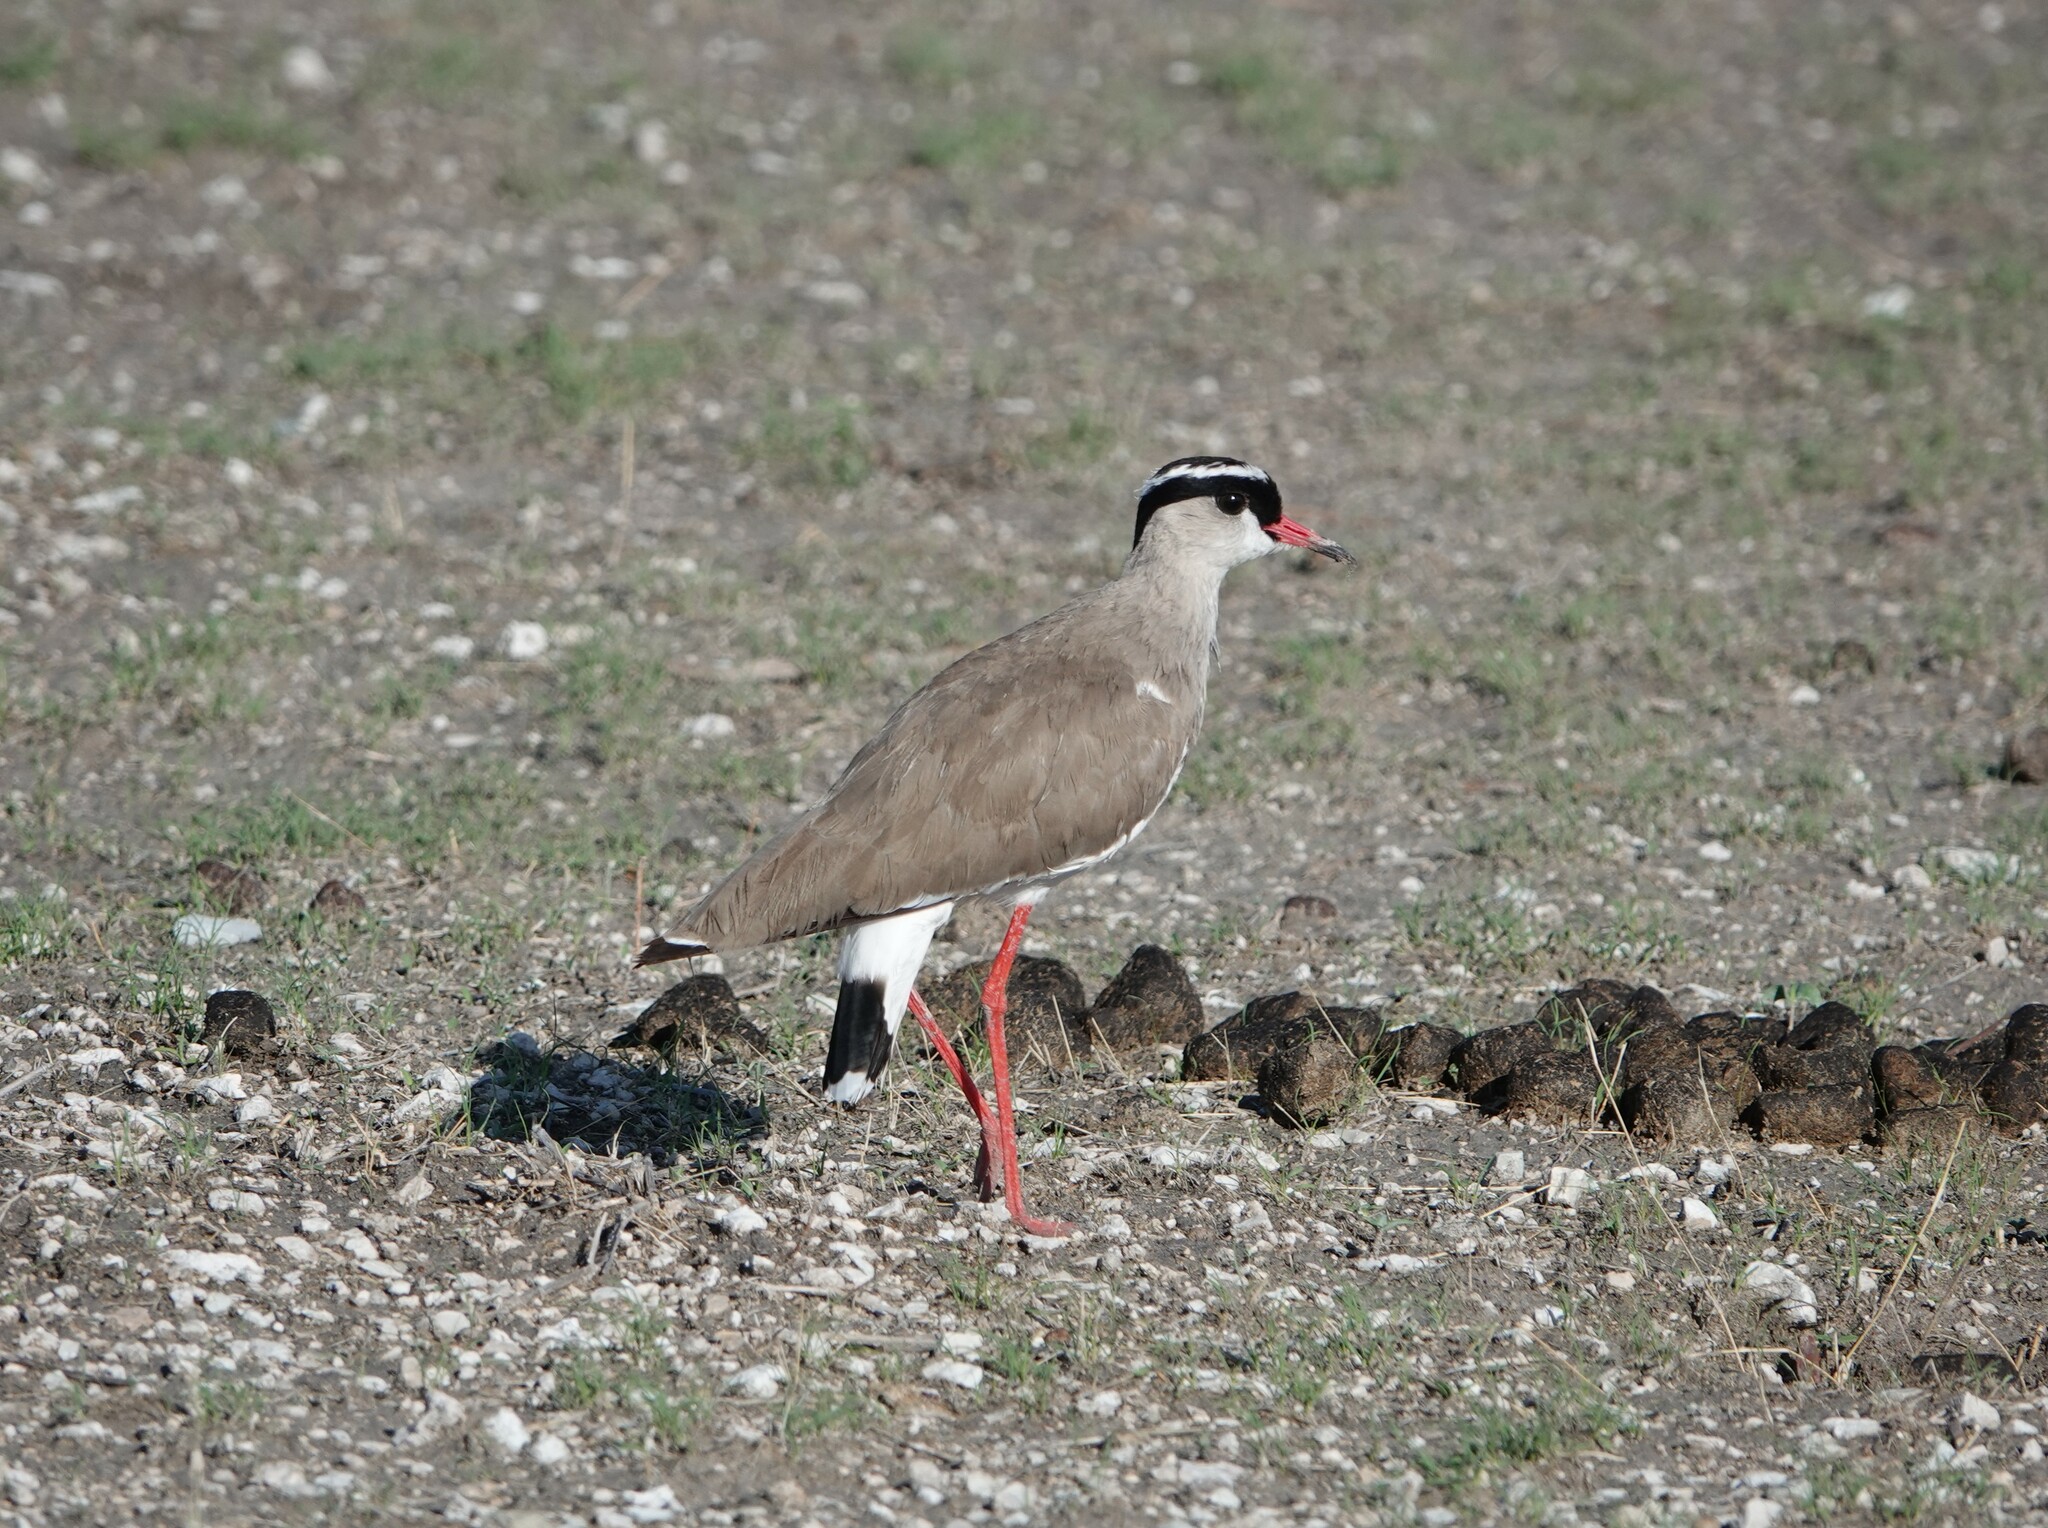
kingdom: Animalia
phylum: Chordata
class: Aves
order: Charadriiformes
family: Charadriidae
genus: Vanellus
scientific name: Vanellus coronatus
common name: Crowned lapwing
